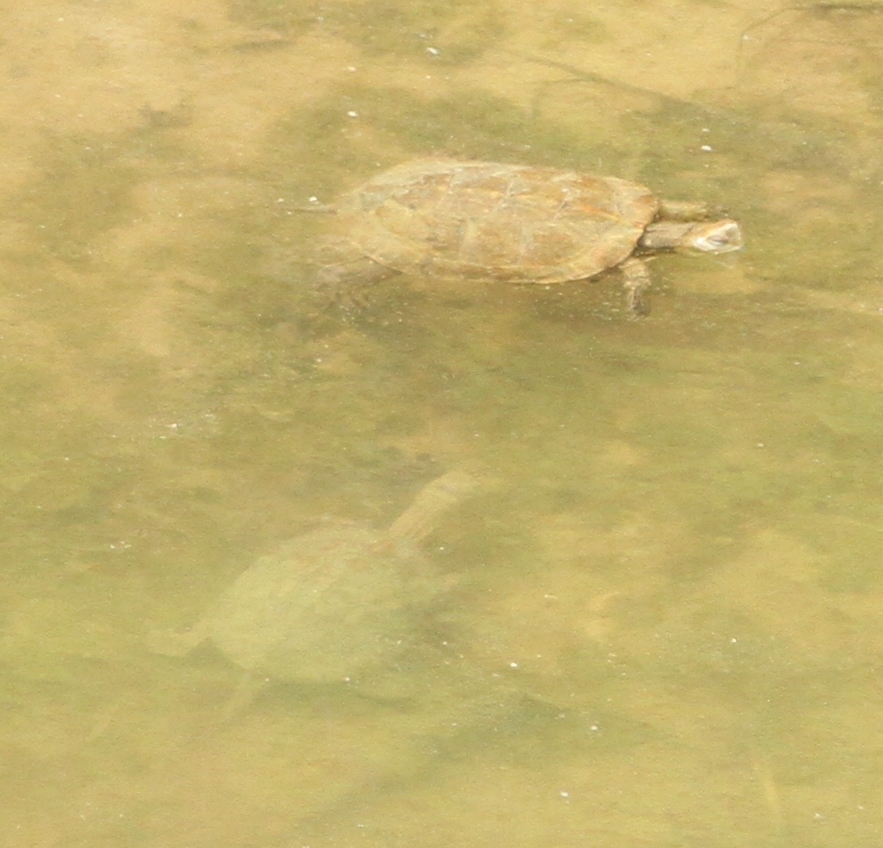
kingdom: Animalia
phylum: Chordata
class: Testudines
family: Geoemydidae
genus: Mauremys
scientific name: Mauremys leprosa
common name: Mediterranean pond turtle
